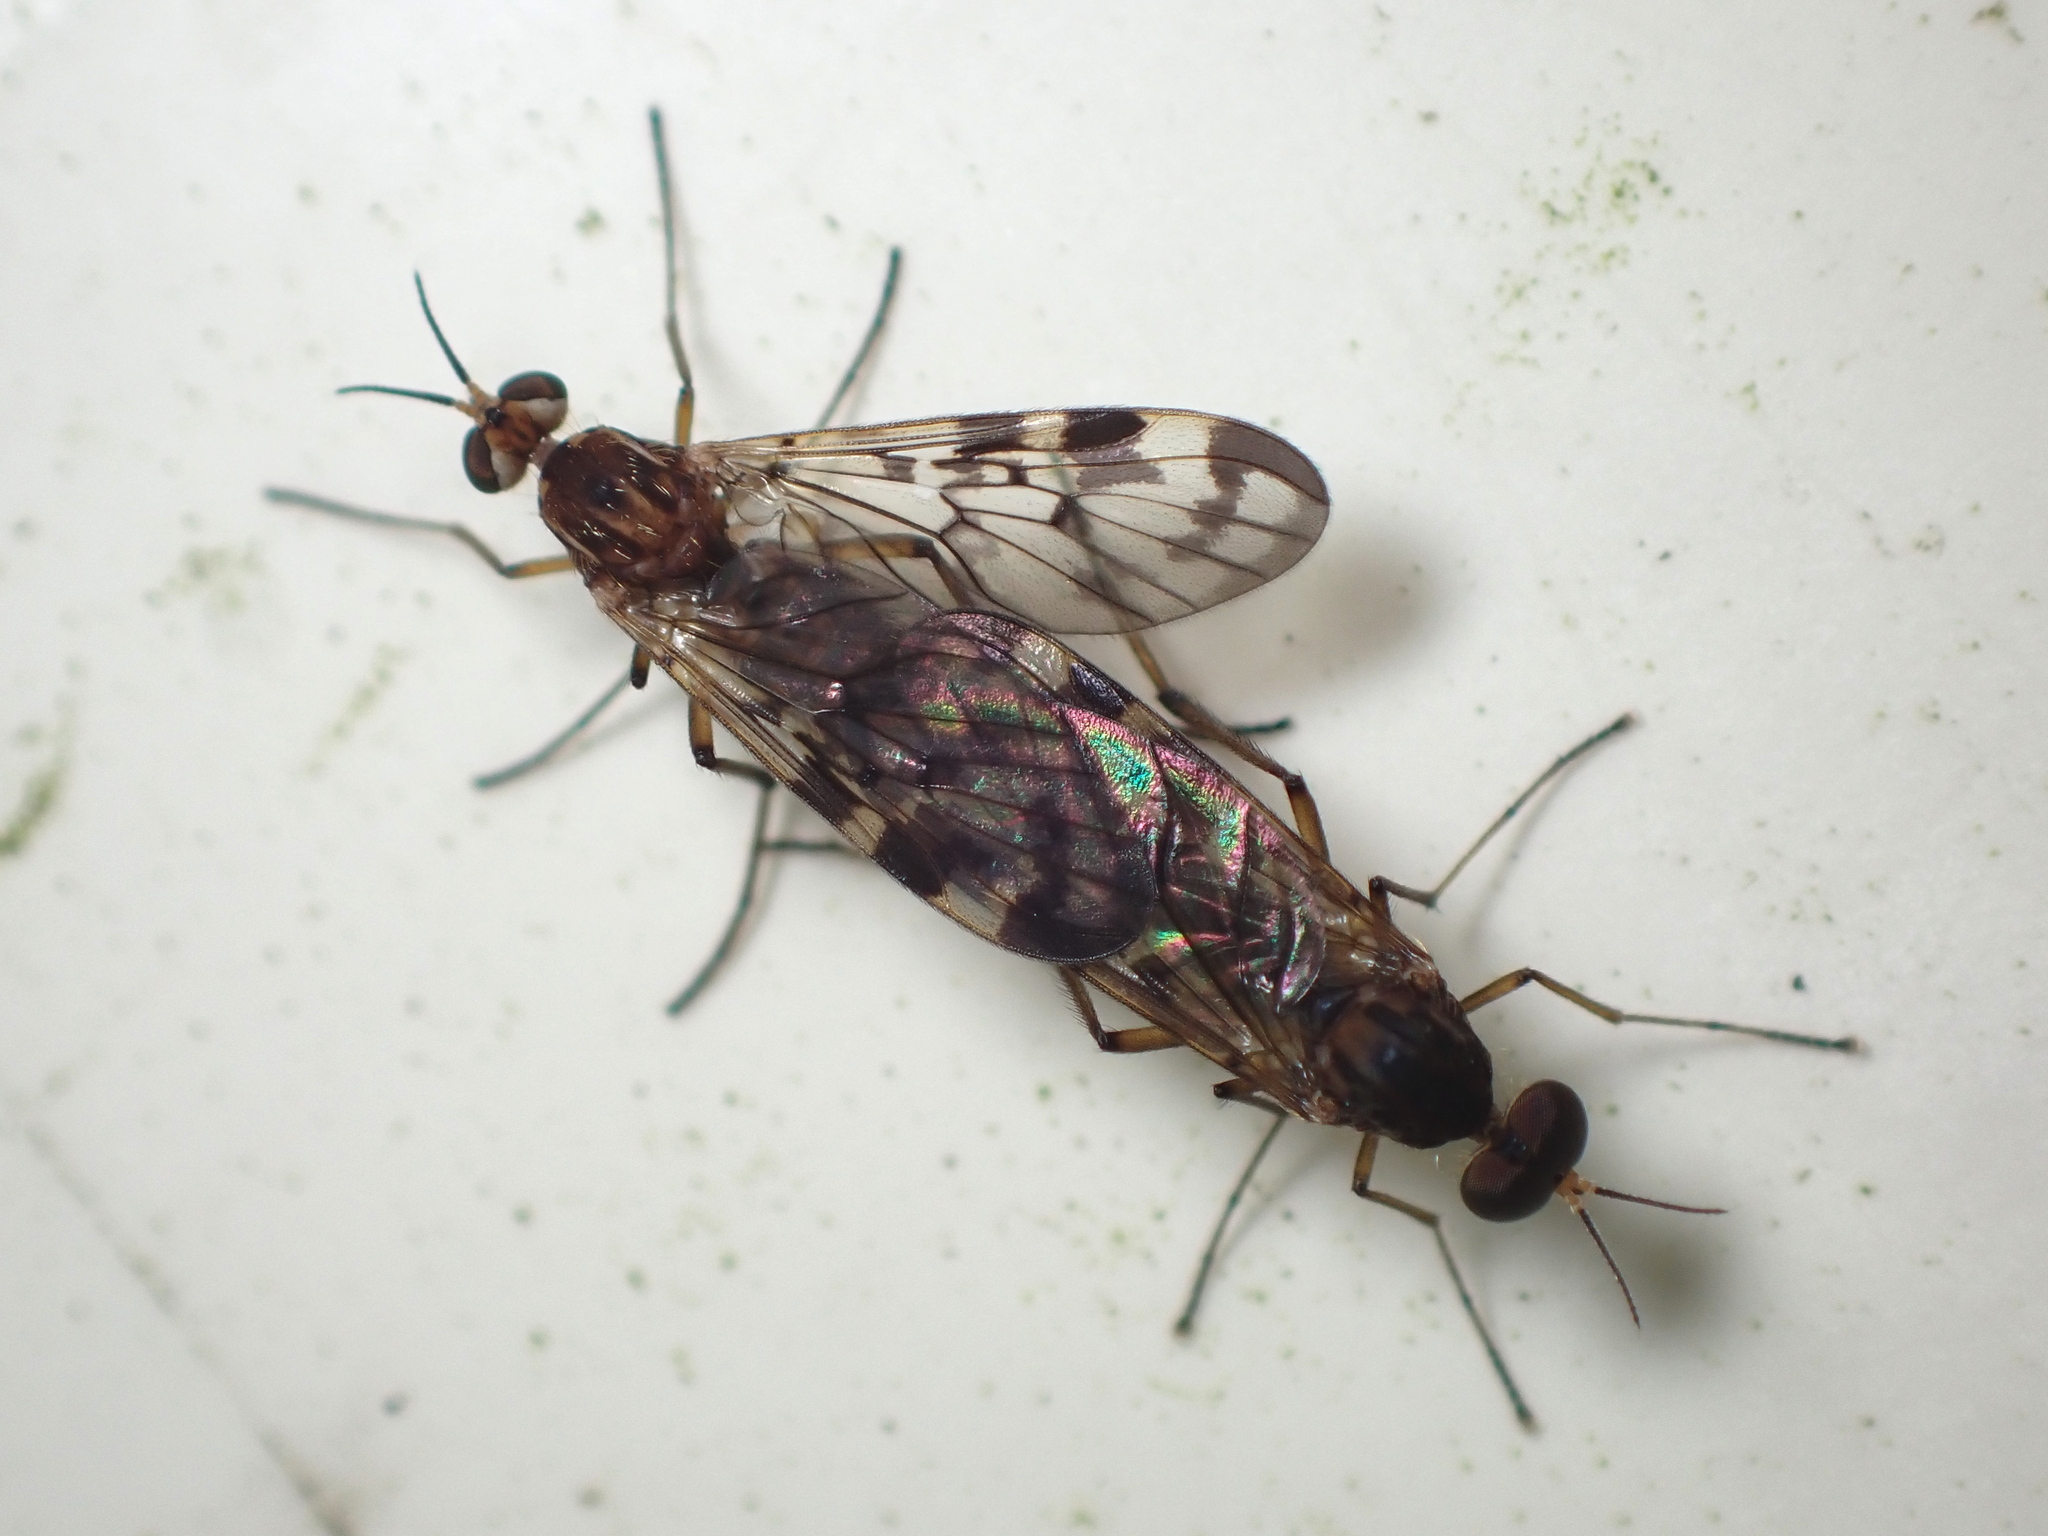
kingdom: Animalia
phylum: Arthropoda
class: Insecta
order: Diptera
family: Anisopodidae
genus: Sylvicola
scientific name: Sylvicola dubius
